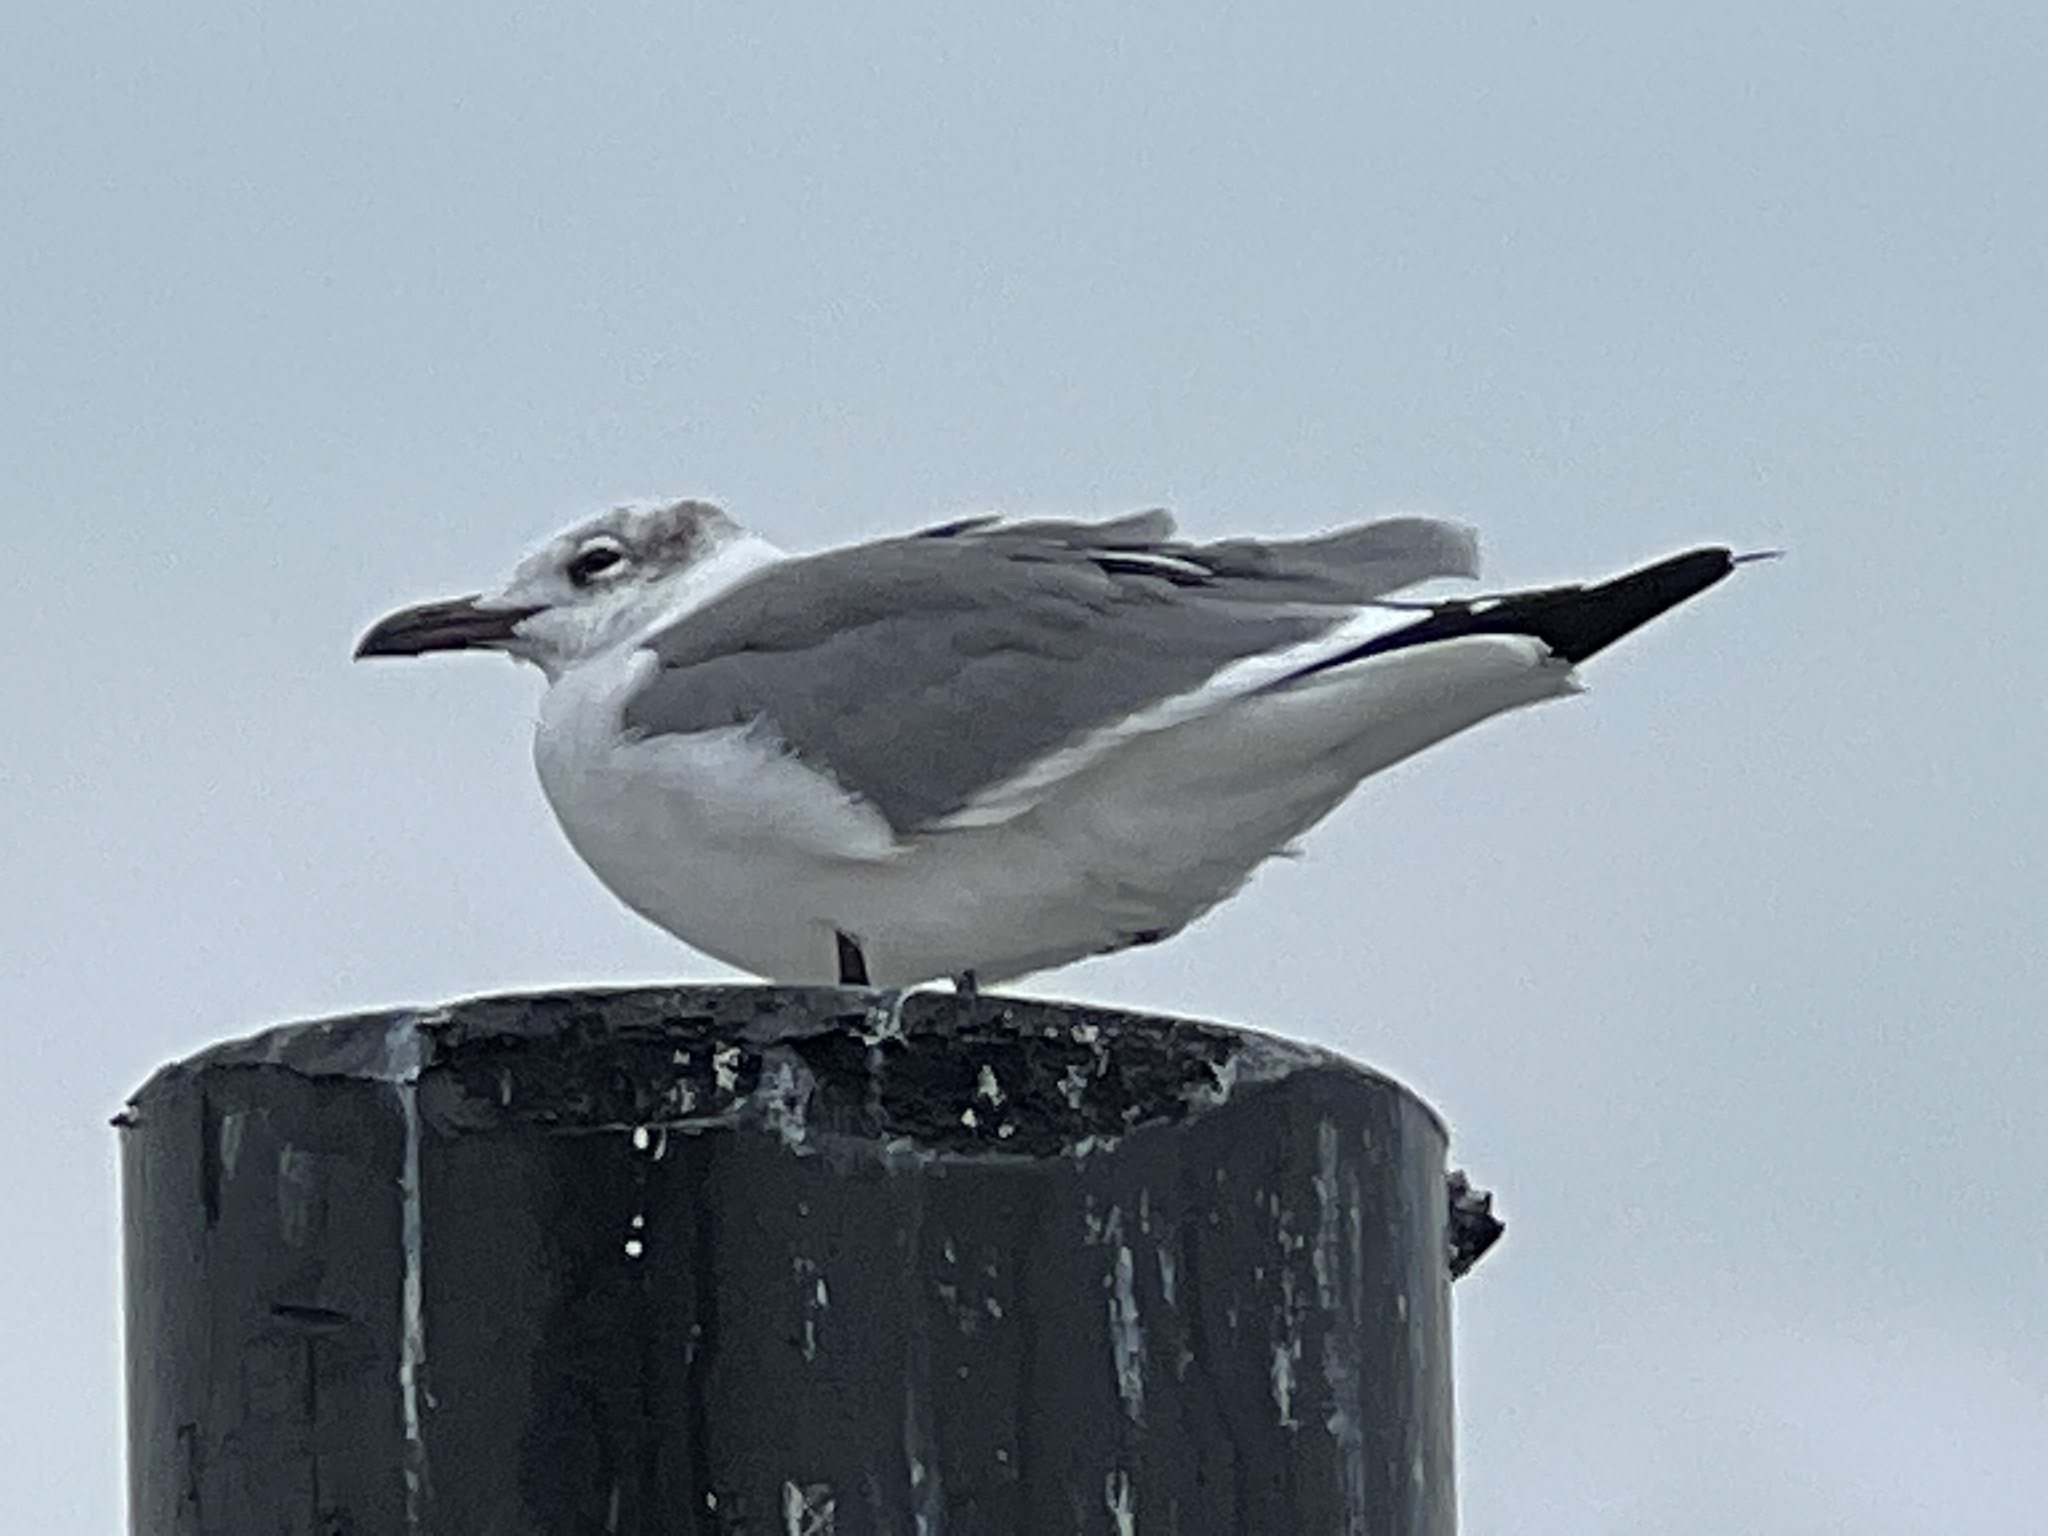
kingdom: Animalia
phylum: Chordata
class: Aves
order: Charadriiformes
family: Laridae
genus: Leucophaeus
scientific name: Leucophaeus atricilla
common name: Laughing gull
